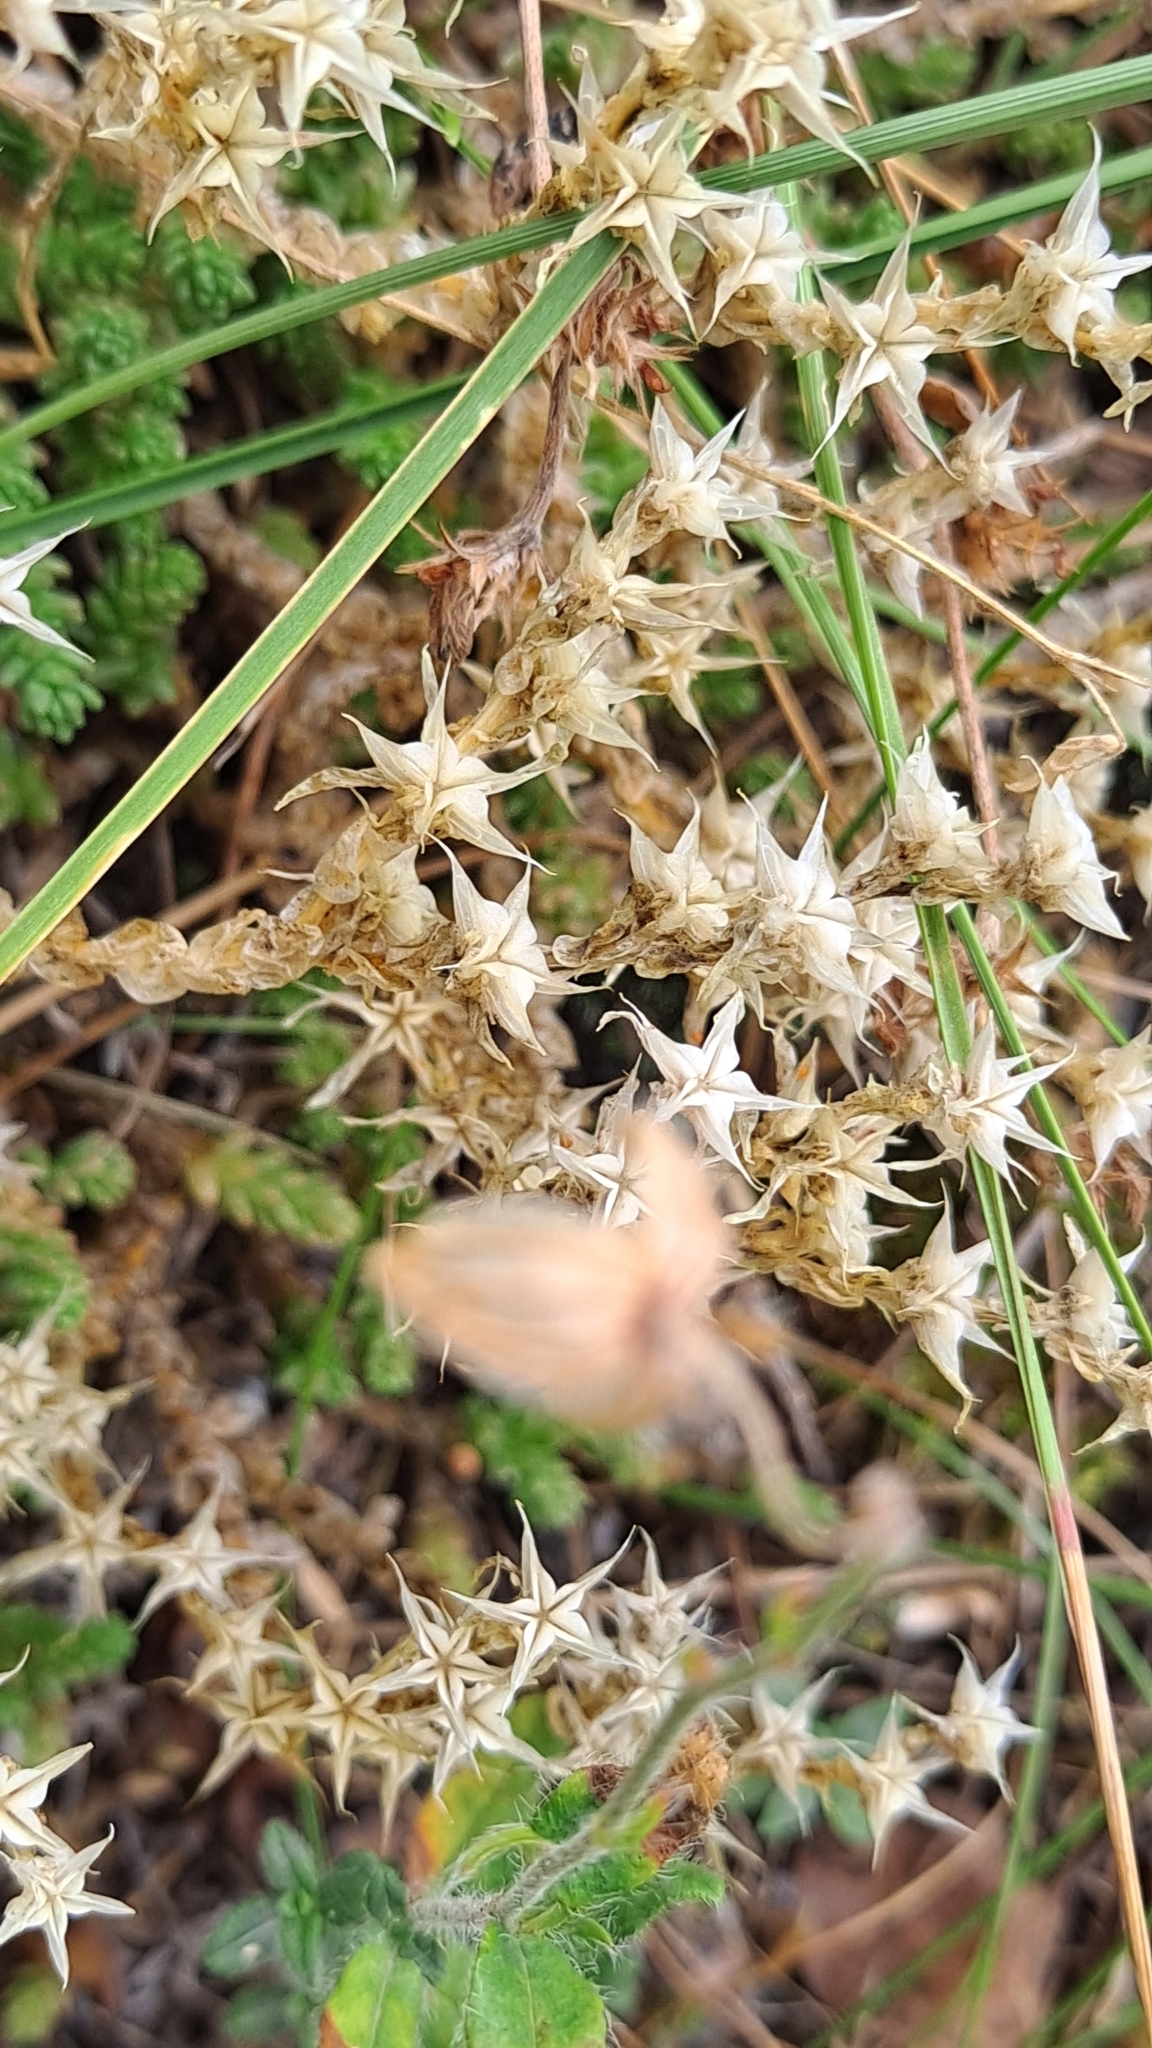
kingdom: Plantae
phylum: Tracheophyta
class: Magnoliopsida
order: Saxifragales
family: Crassulaceae
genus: Sedum
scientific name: Sedum acre
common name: Biting stonecrop
